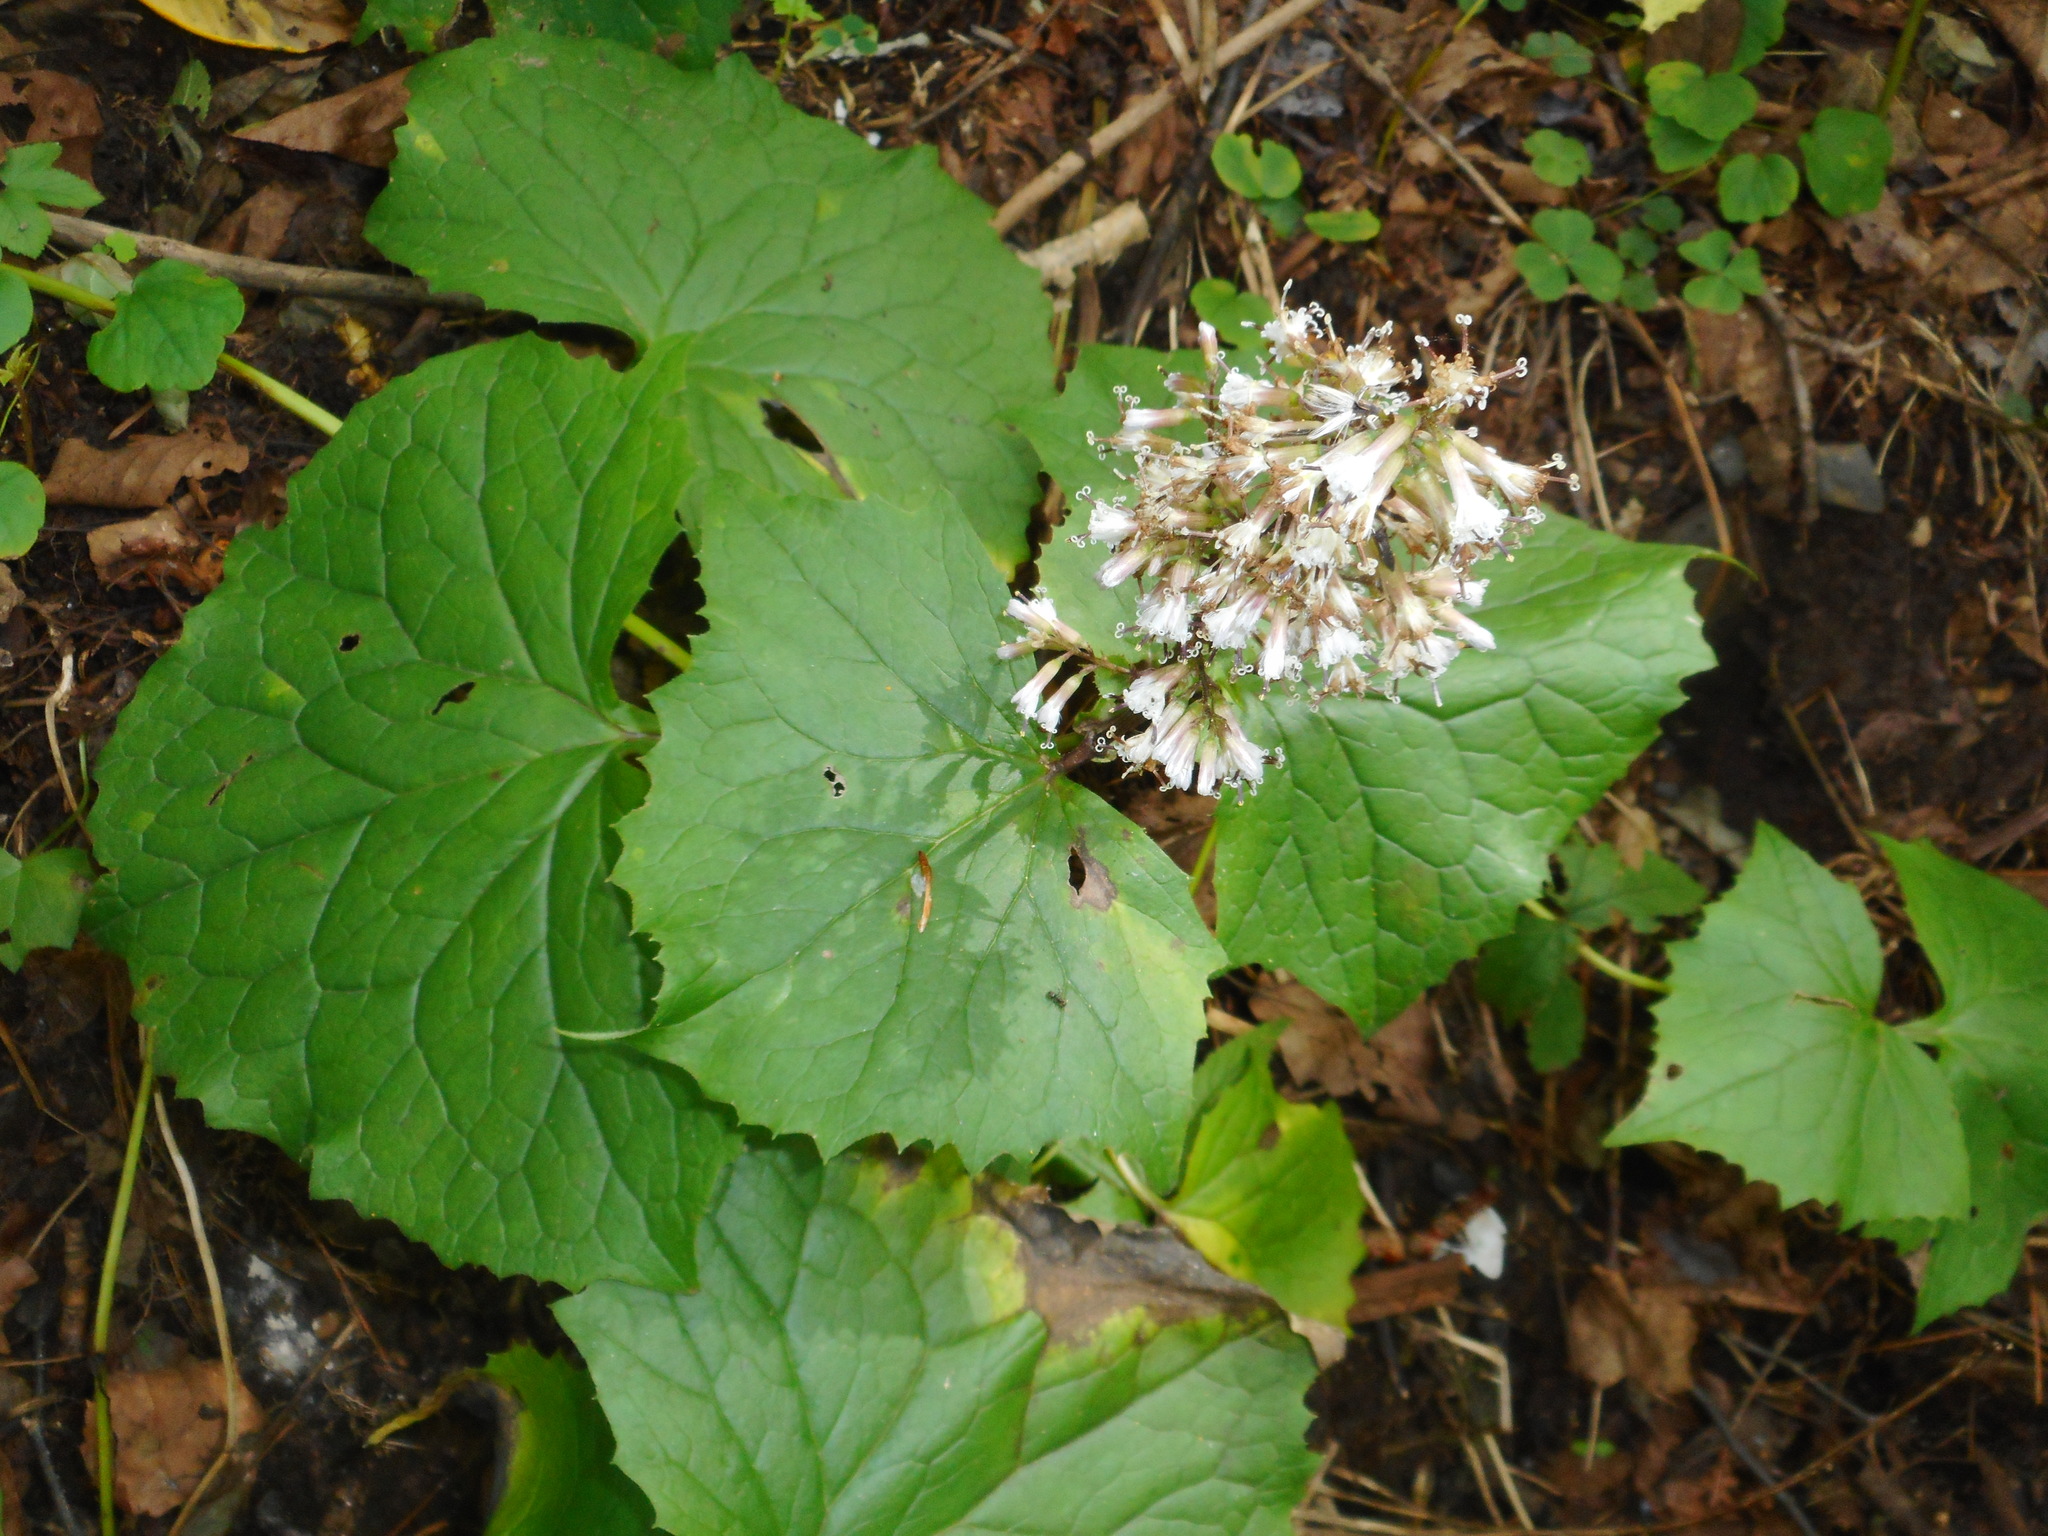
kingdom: Plantae
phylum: Tracheophyta
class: Magnoliopsida
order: Asterales
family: Asteraceae
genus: Parasenecio
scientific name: Parasenecio praetermissus
